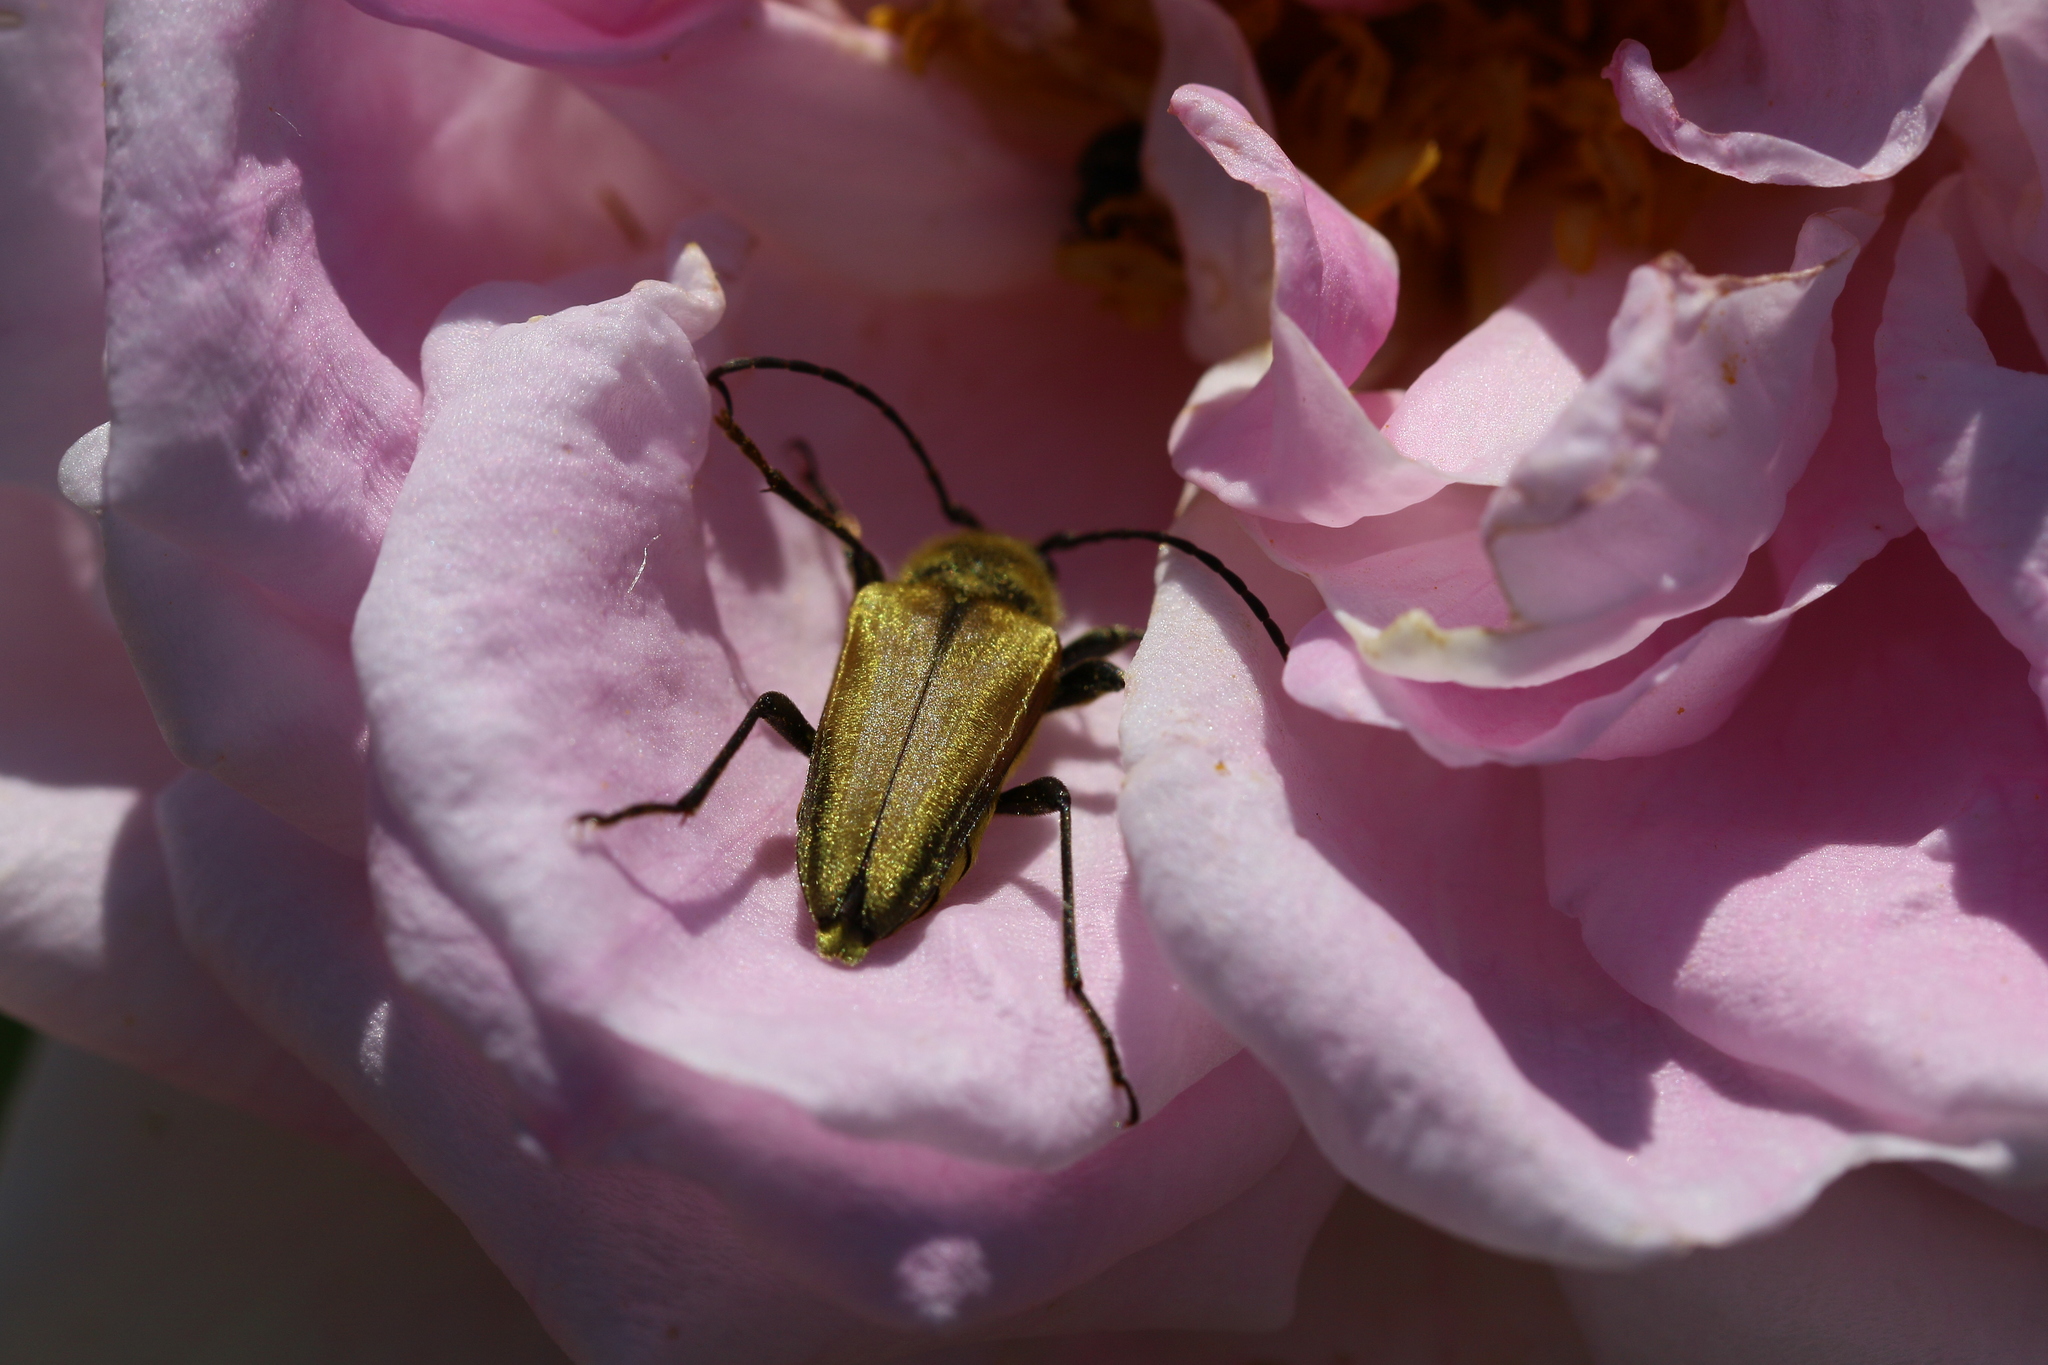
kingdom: Animalia
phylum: Arthropoda
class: Insecta
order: Coleoptera
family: Cerambycidae
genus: Cosmosalia
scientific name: Cosmosalia chrysocoma
